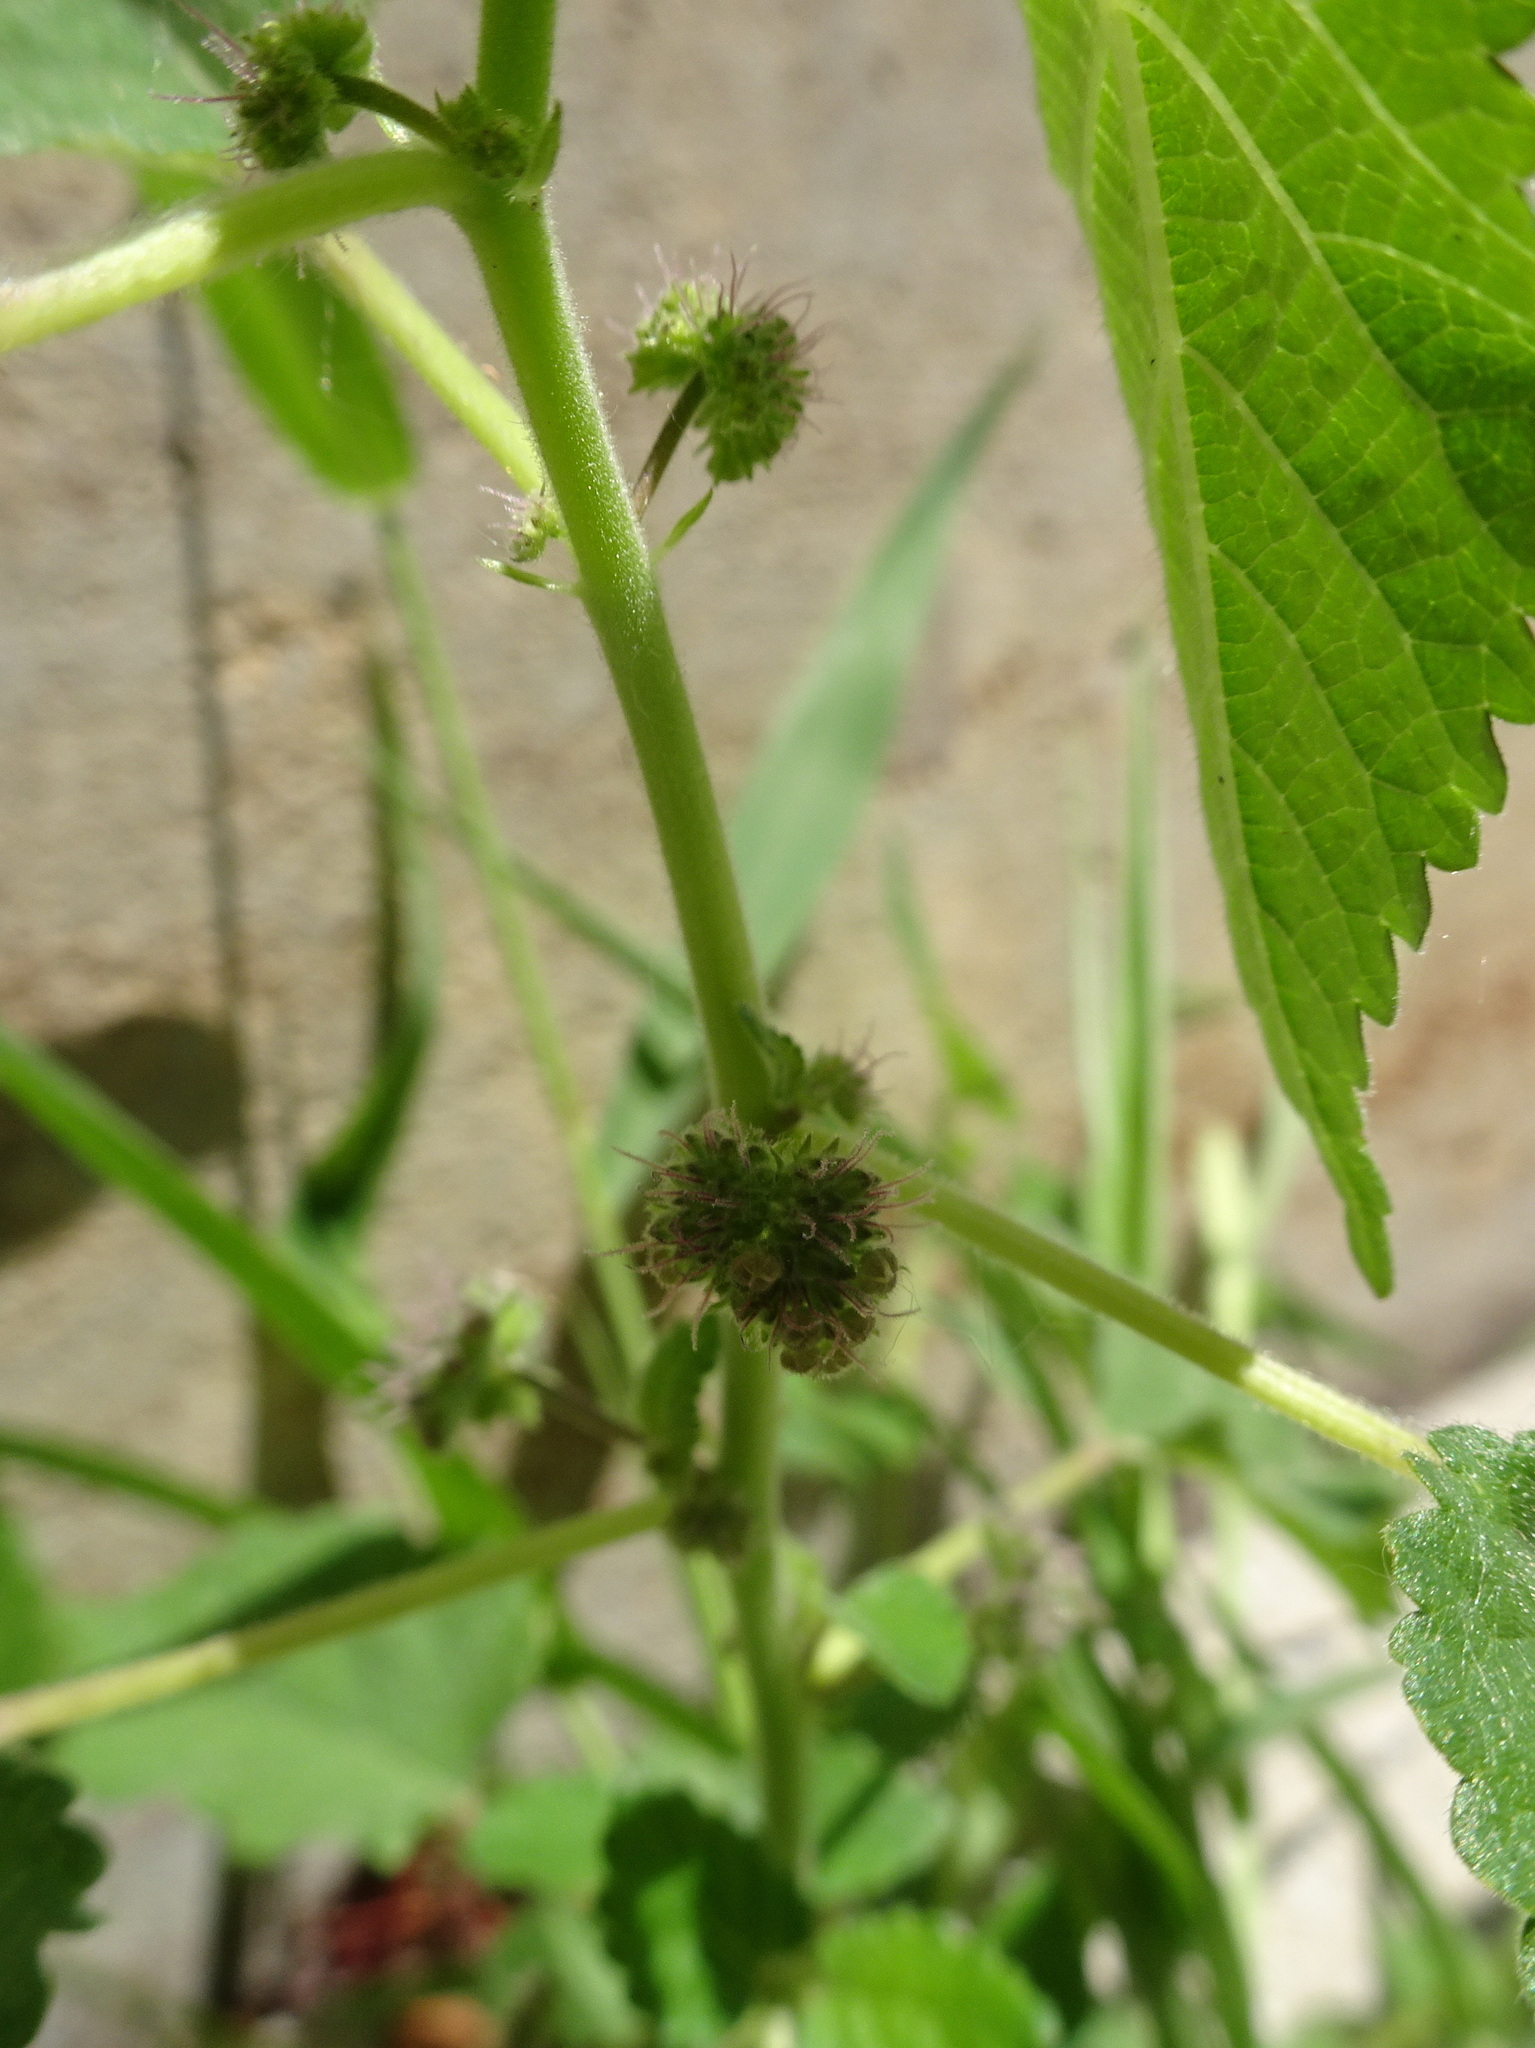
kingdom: Plantae
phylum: Tracheophyta
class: Magnoliopsida
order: Rosales
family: Moraceae
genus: Fatoua
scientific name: Fatoua villosa
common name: Hairy crabweed
